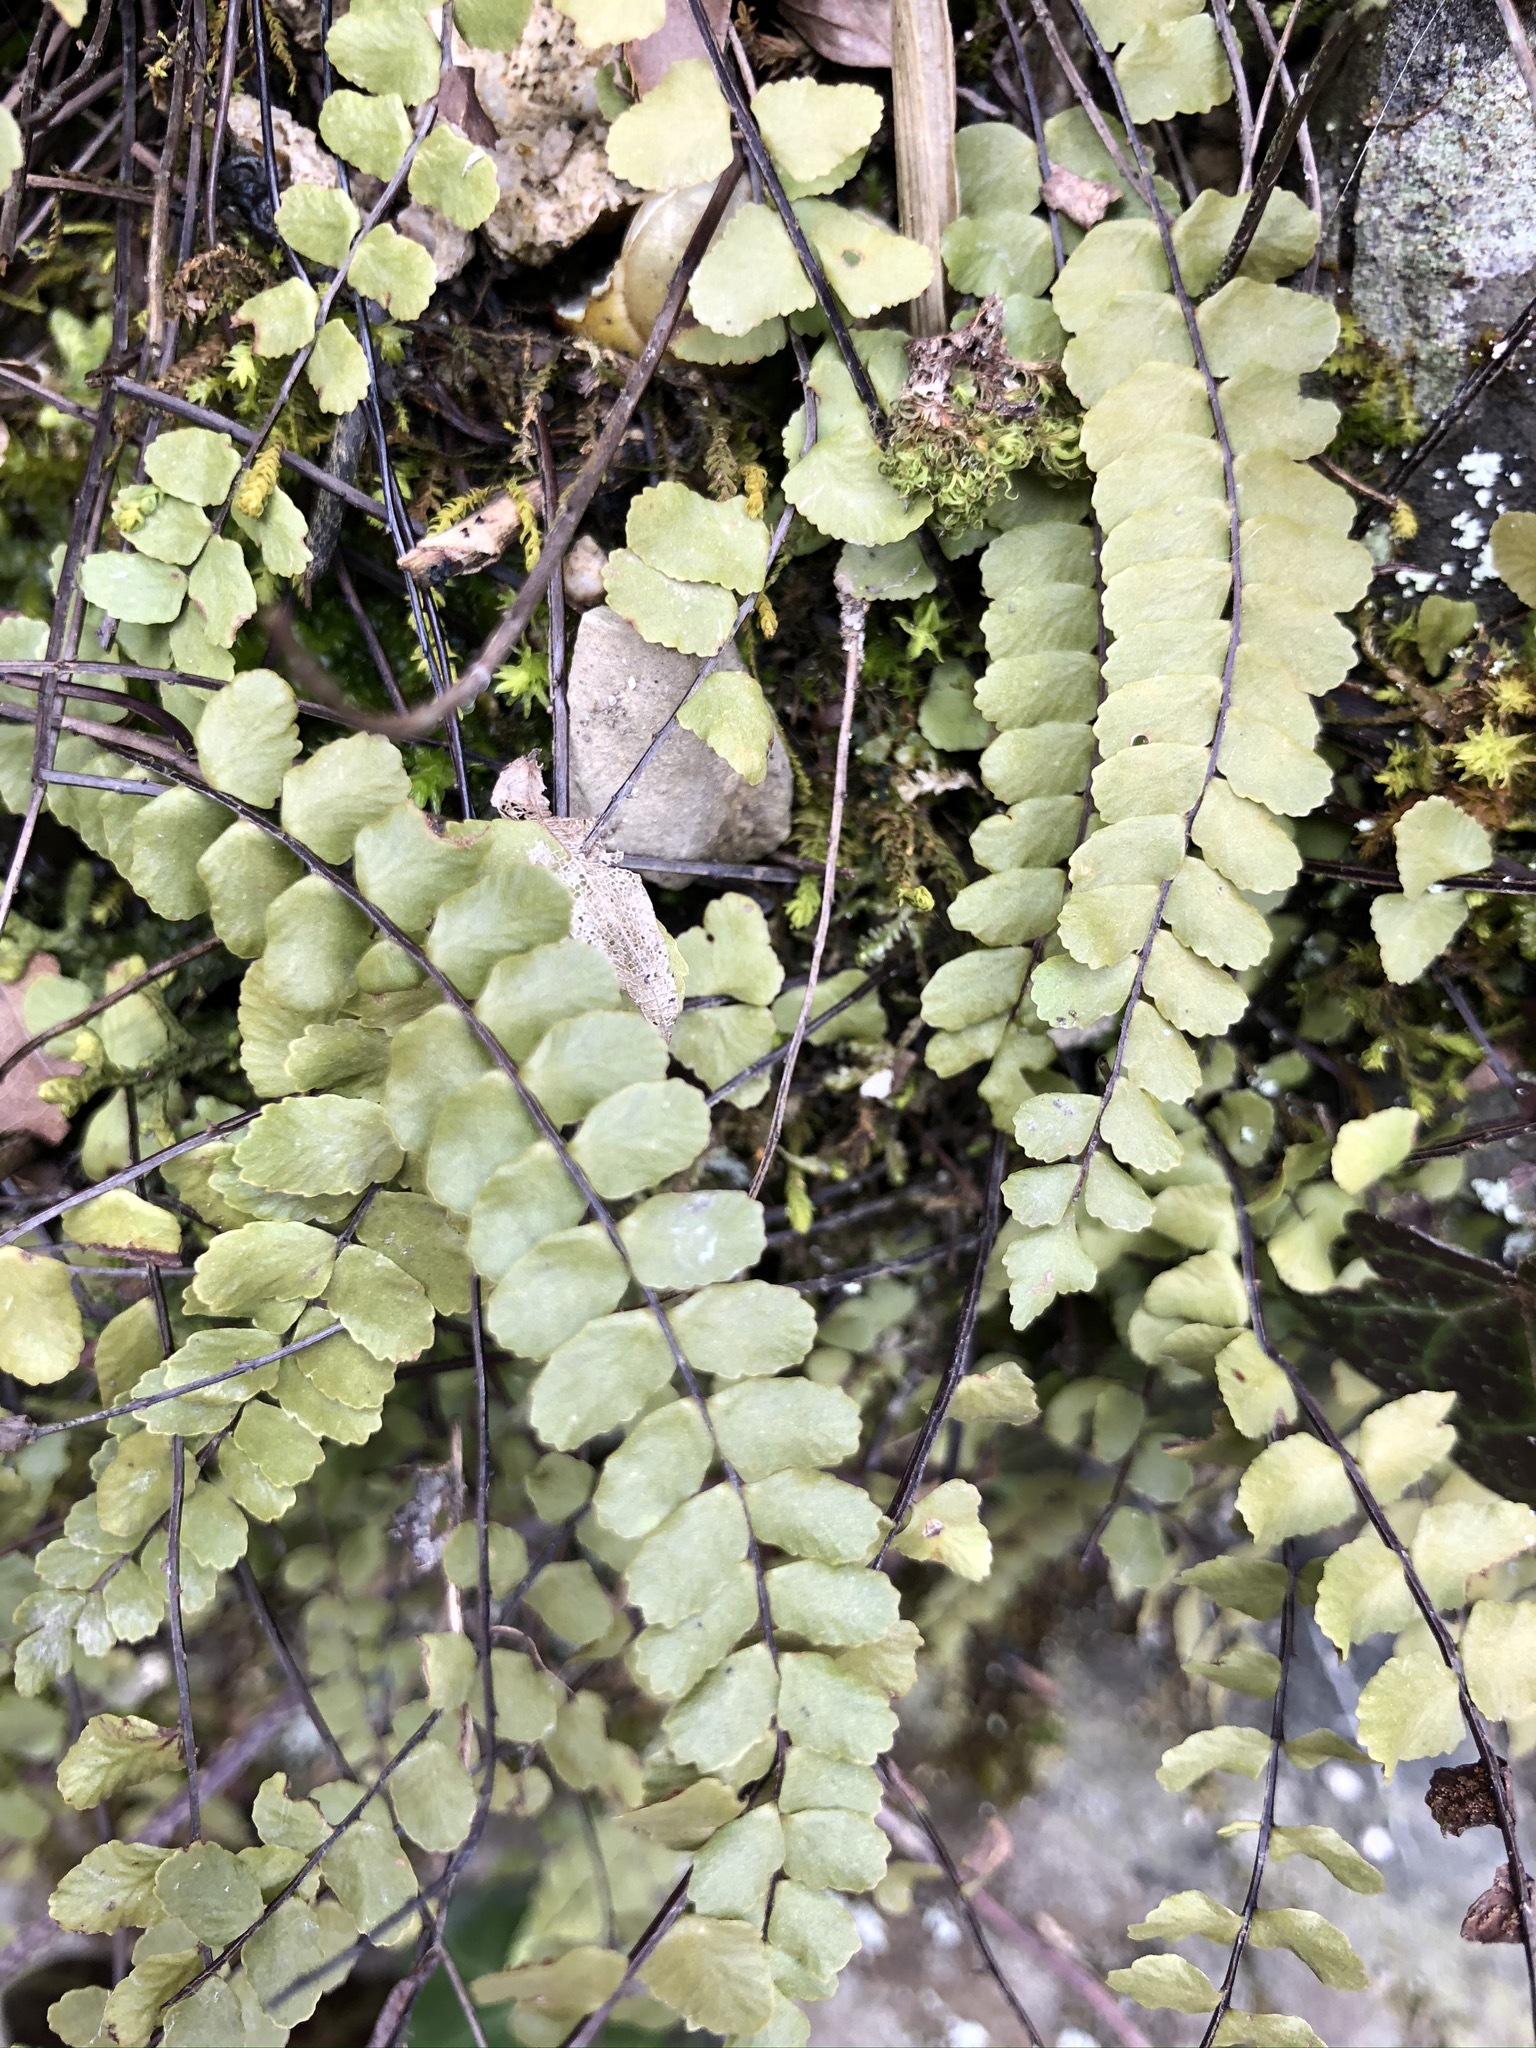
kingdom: Plantae
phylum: Tracheophyta
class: Polypodiopsida
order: Polypodiales
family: Aspleniaceae
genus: Asplenium
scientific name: Asplenium trichomanes
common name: Maidenhair spleenwort
